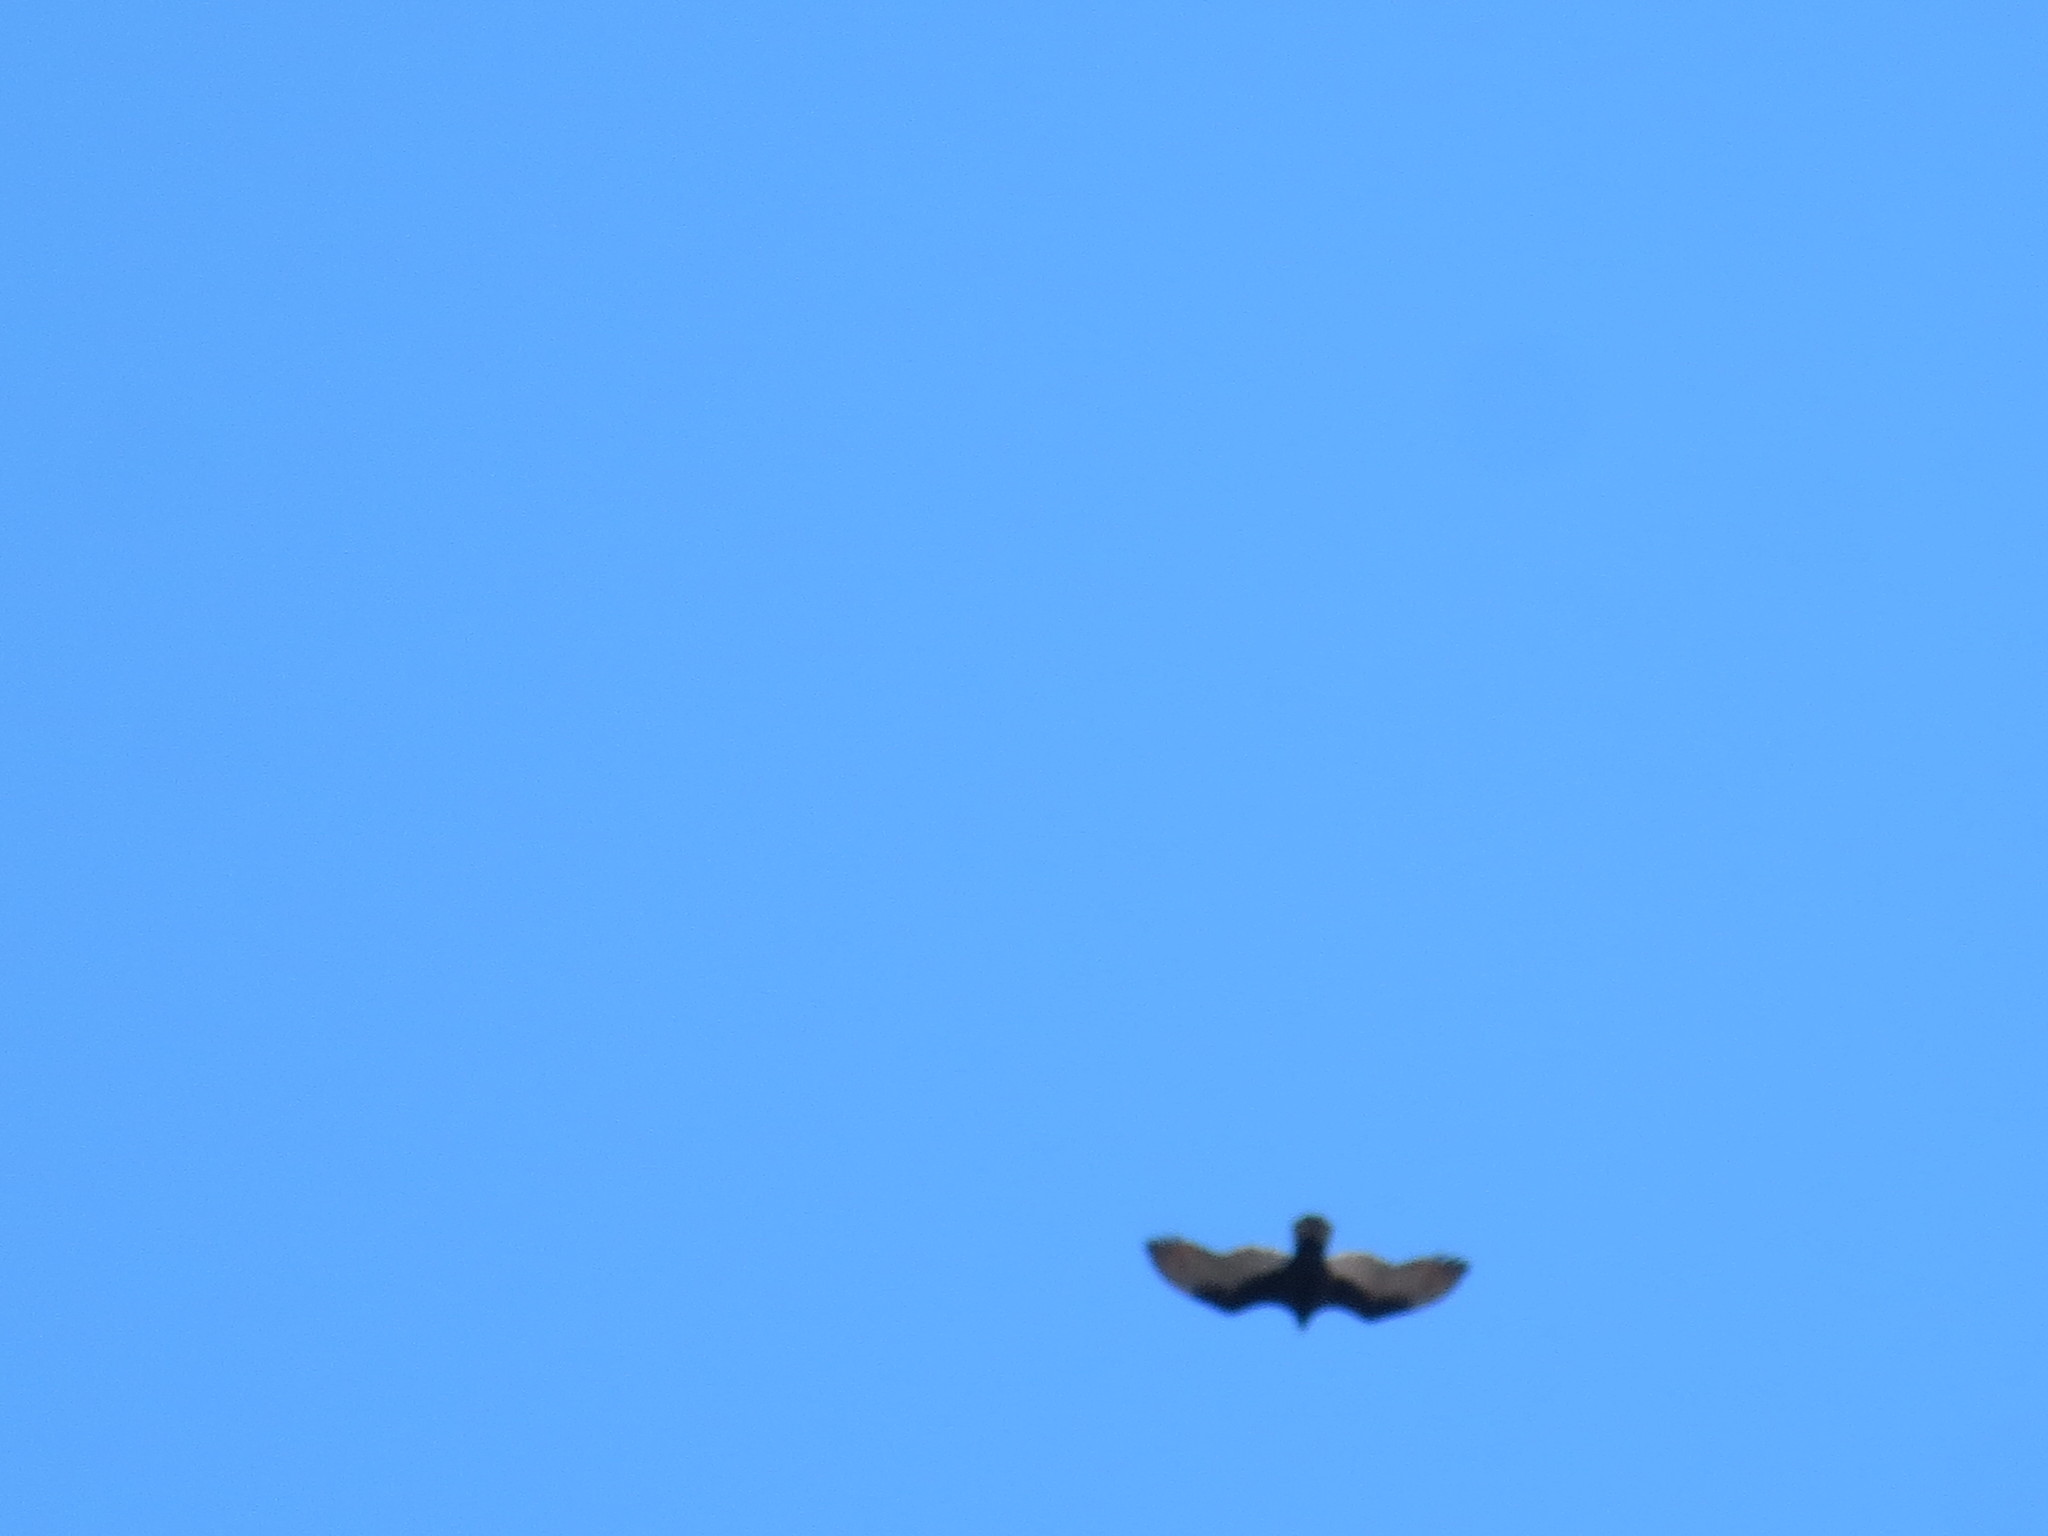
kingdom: Animalia
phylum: Chordata
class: Aves
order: Accipitriformes
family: Cathartidae
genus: Cathartes
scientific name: Cathartes aura
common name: Turkey vulture
